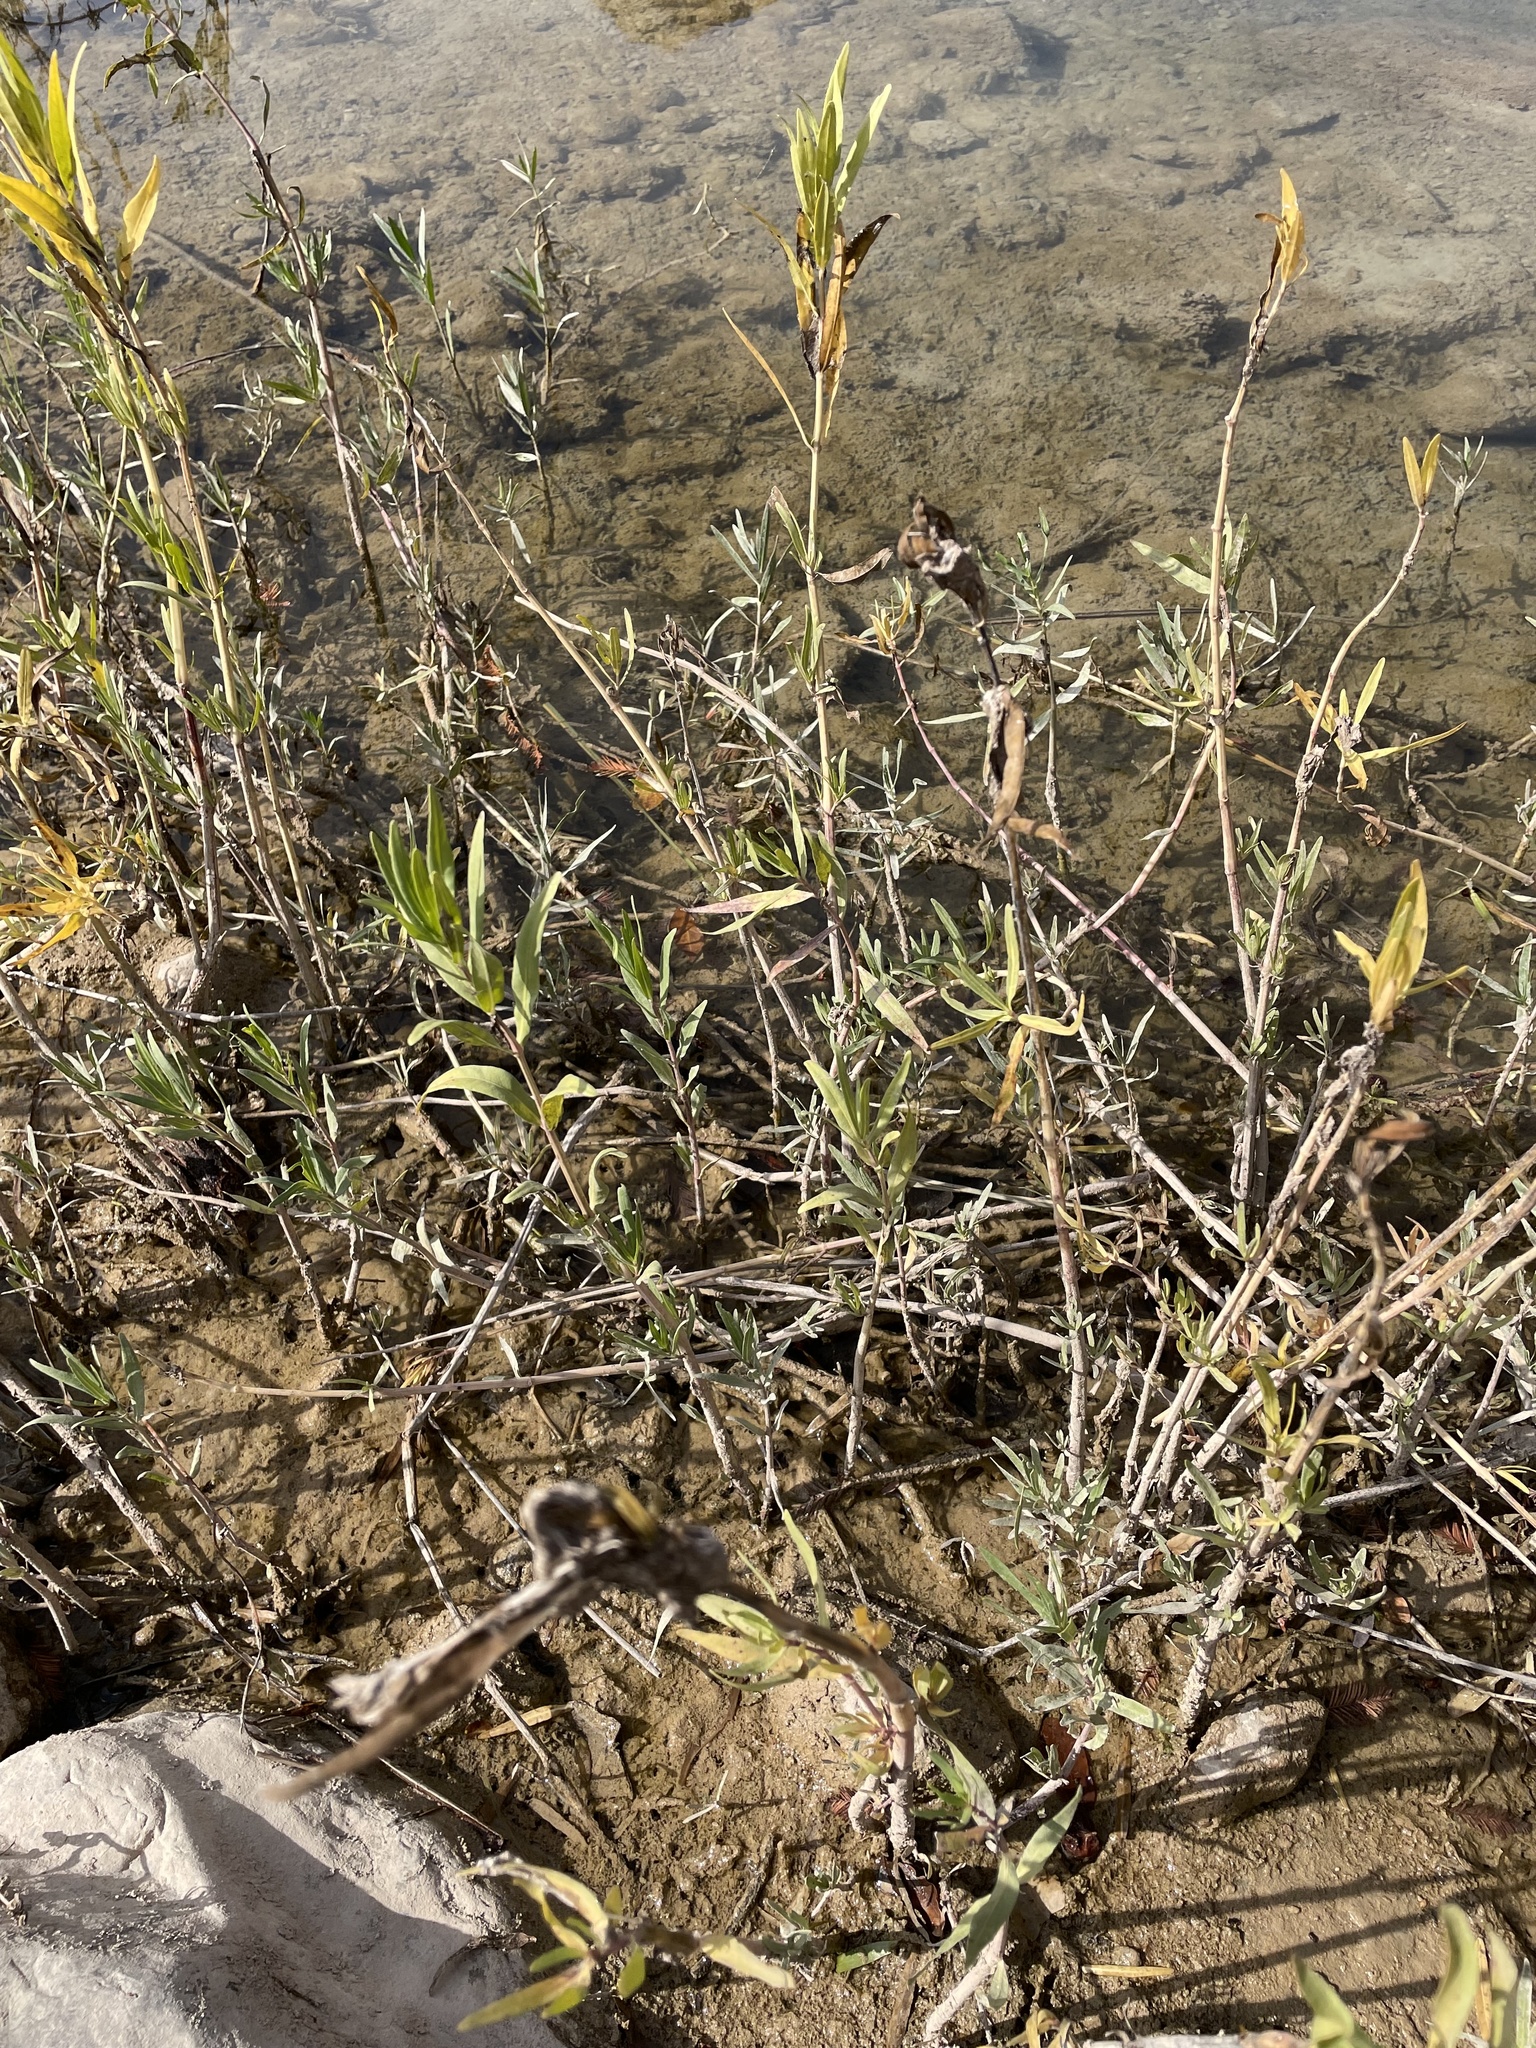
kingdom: Plantae
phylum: Tracheophyta
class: Magnoliopsida
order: Lamiales
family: Acanthaceae
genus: Dianthera
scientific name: Dianthera americana
